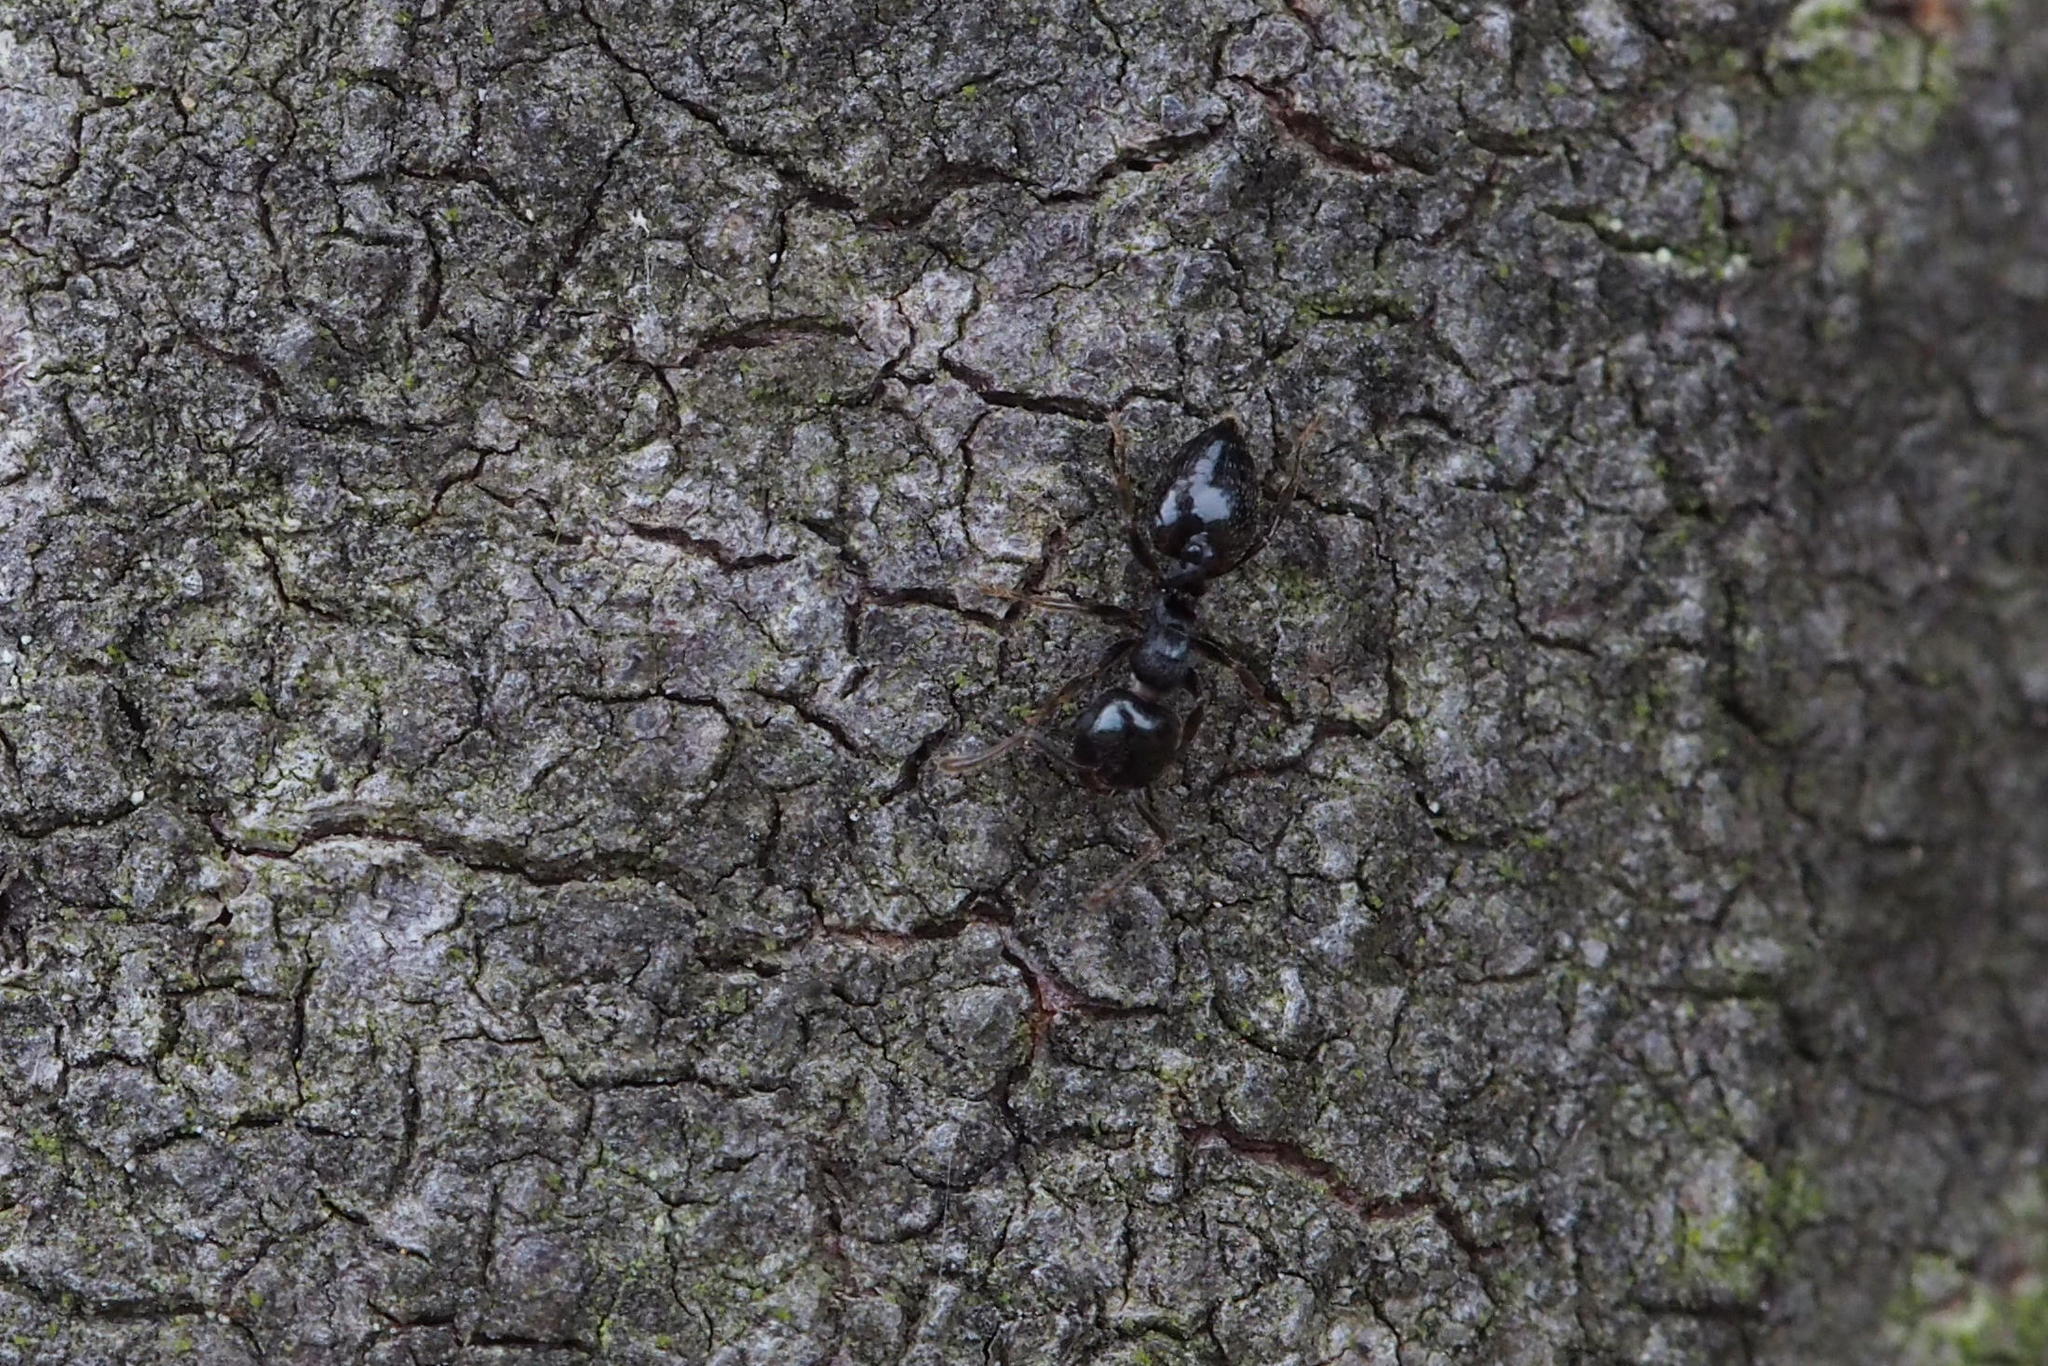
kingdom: Animalia
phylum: Arthropoda
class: Insecta
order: Hymenoptera
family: Formicidae
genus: Crematogaster
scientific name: Crematogaster teranishii
